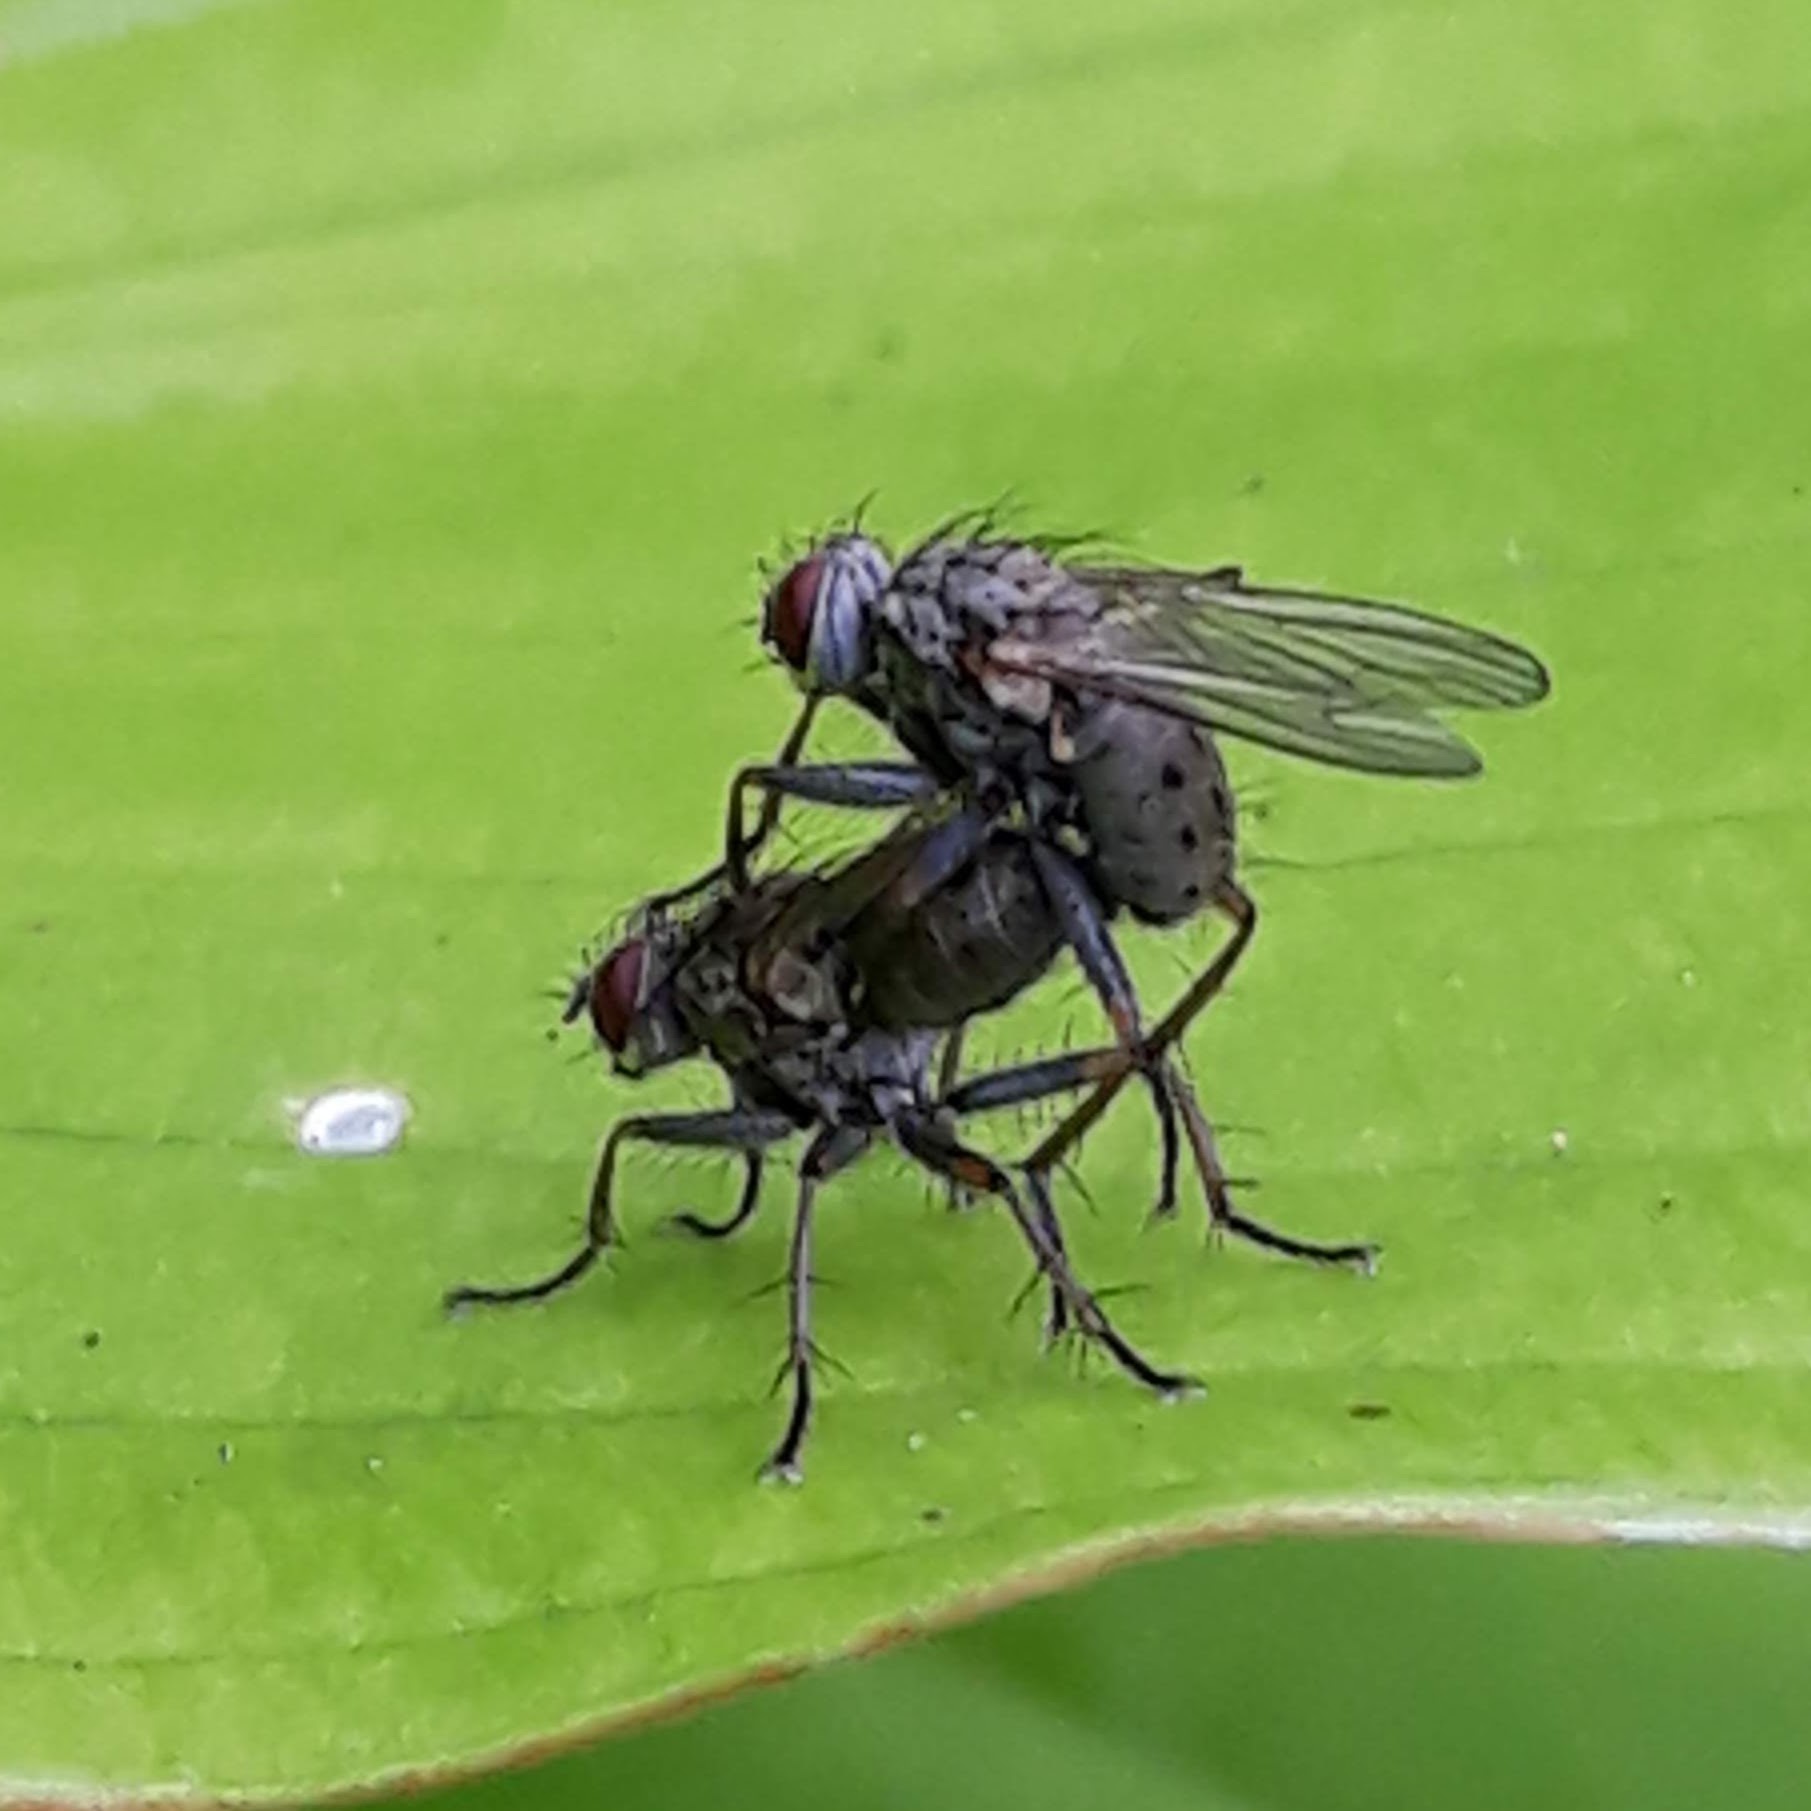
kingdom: Animalia
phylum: Arthropoda
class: Insecta
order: Diptera
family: Muscidae
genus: Coenosia
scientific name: Coenosia tigrina
